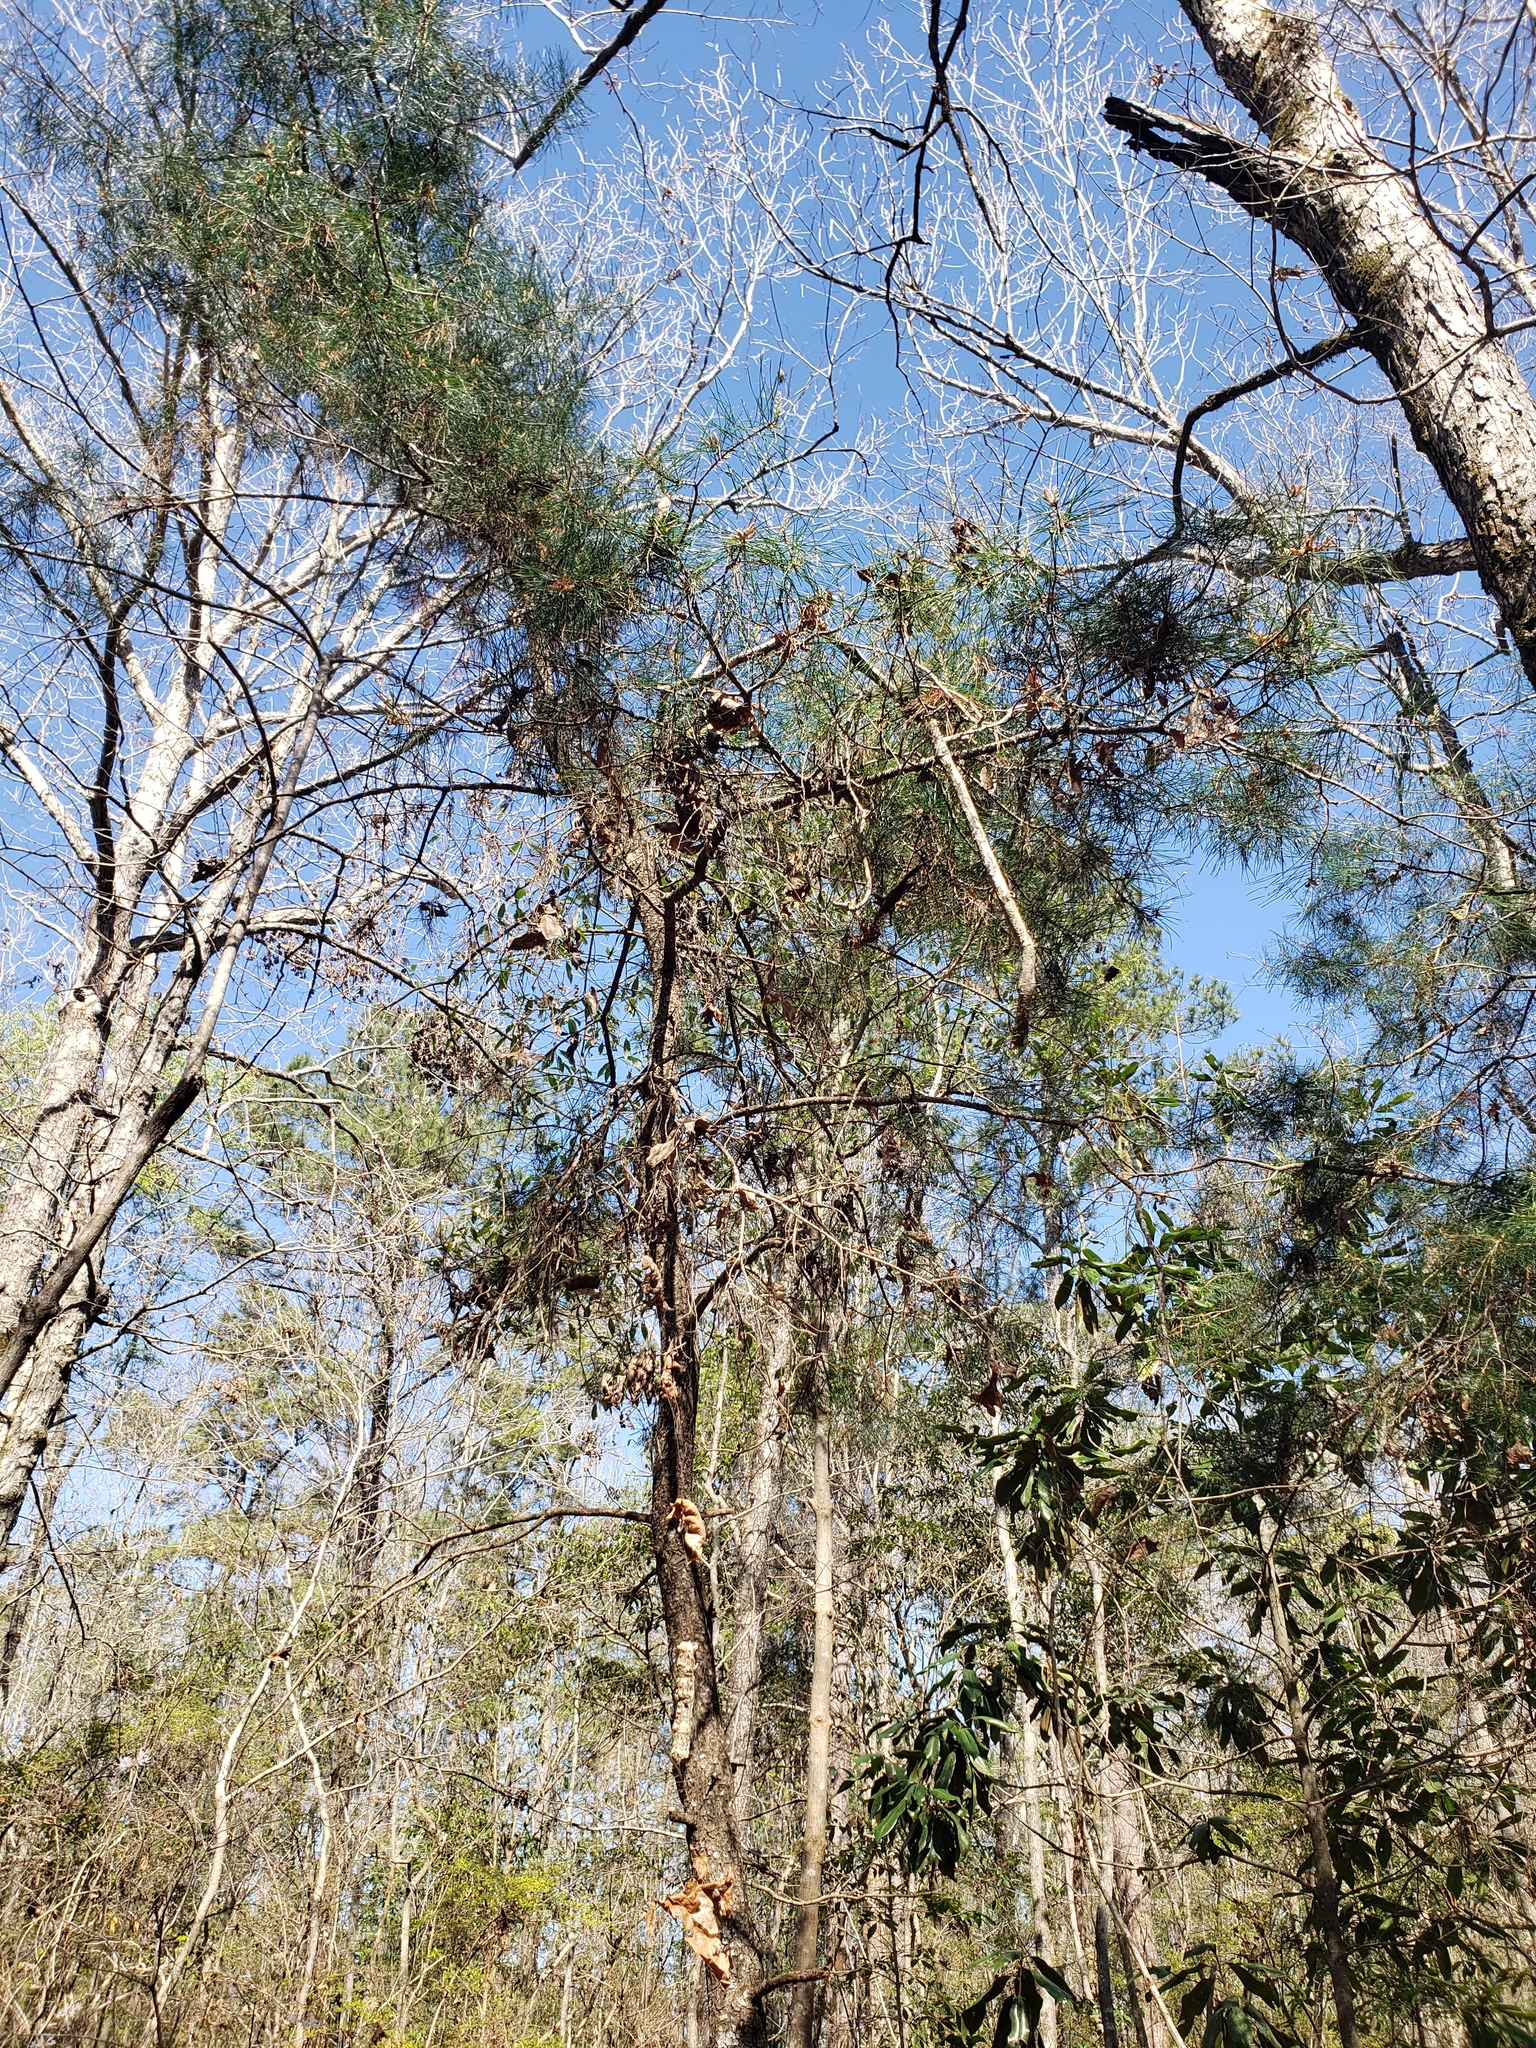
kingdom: Plantae
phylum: Tracheophyta
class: Pinopsida
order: Pinales
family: Pinaceae
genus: Pinus
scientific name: Pinus glabra
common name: Spruce pine
